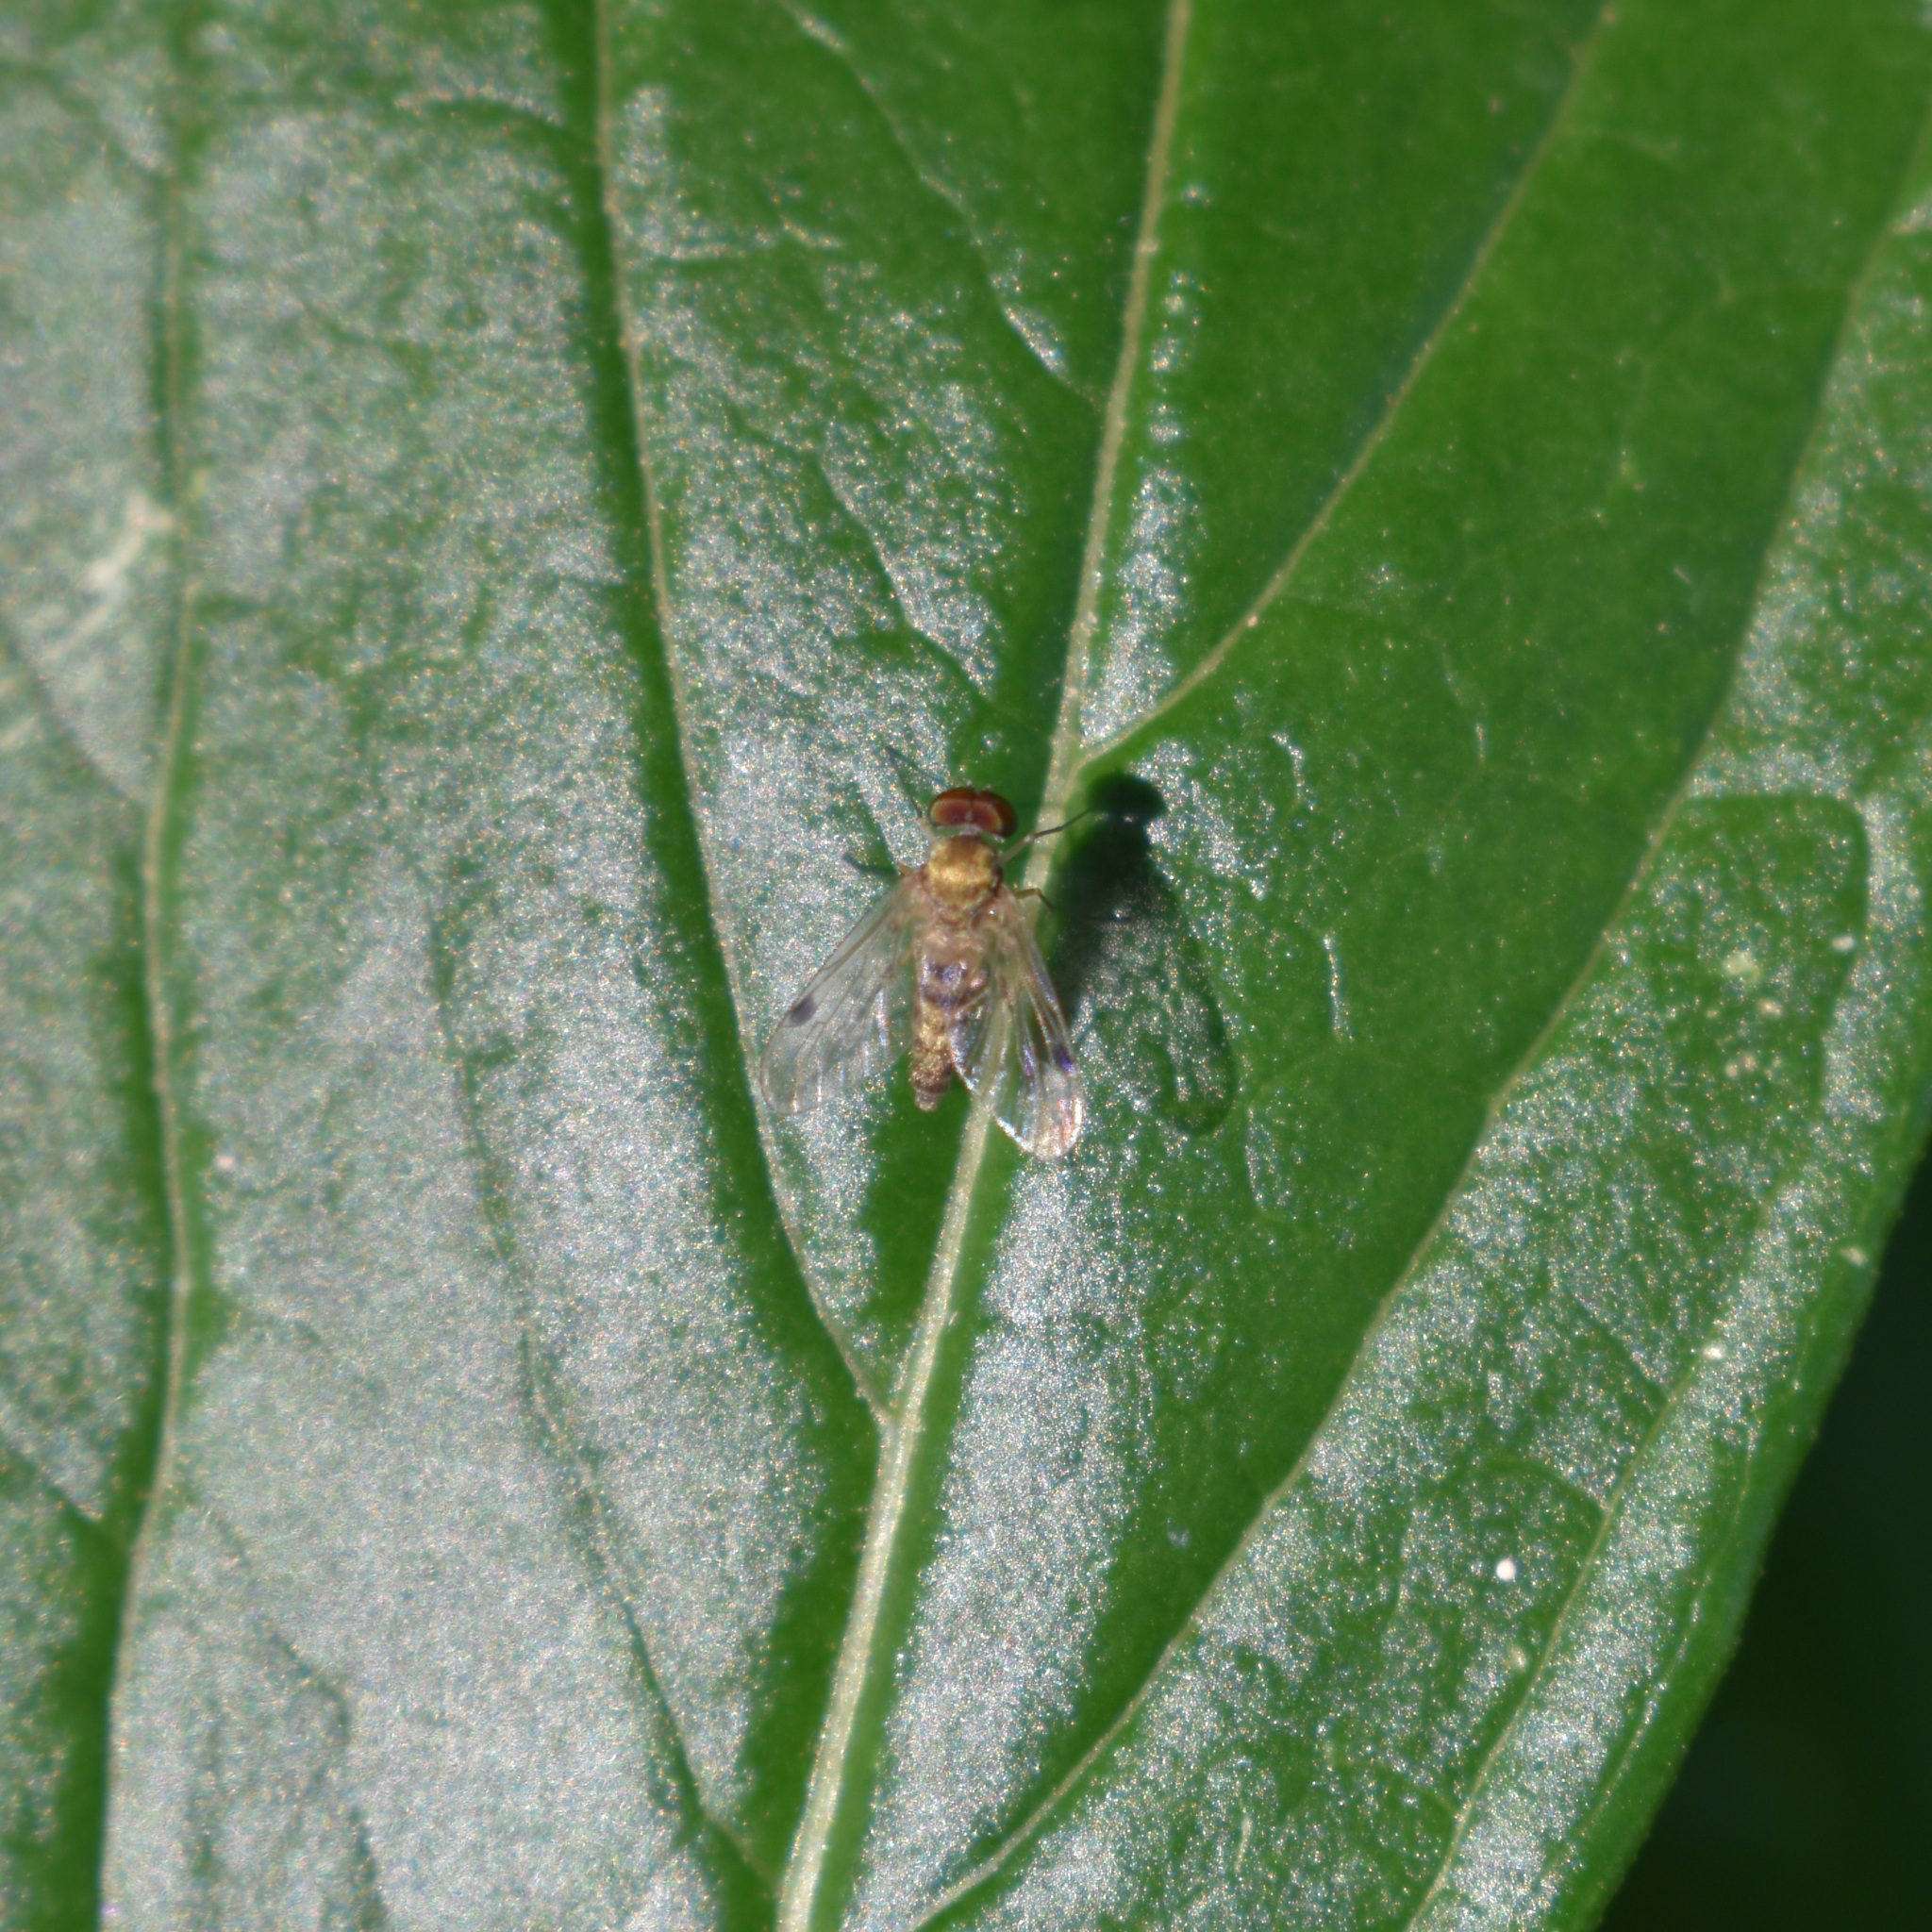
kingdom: Animalia
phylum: Arthropoda
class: Insecta
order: Diptera
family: Rhagionidae
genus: Chrysopilus
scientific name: Chrysopilus modestus
